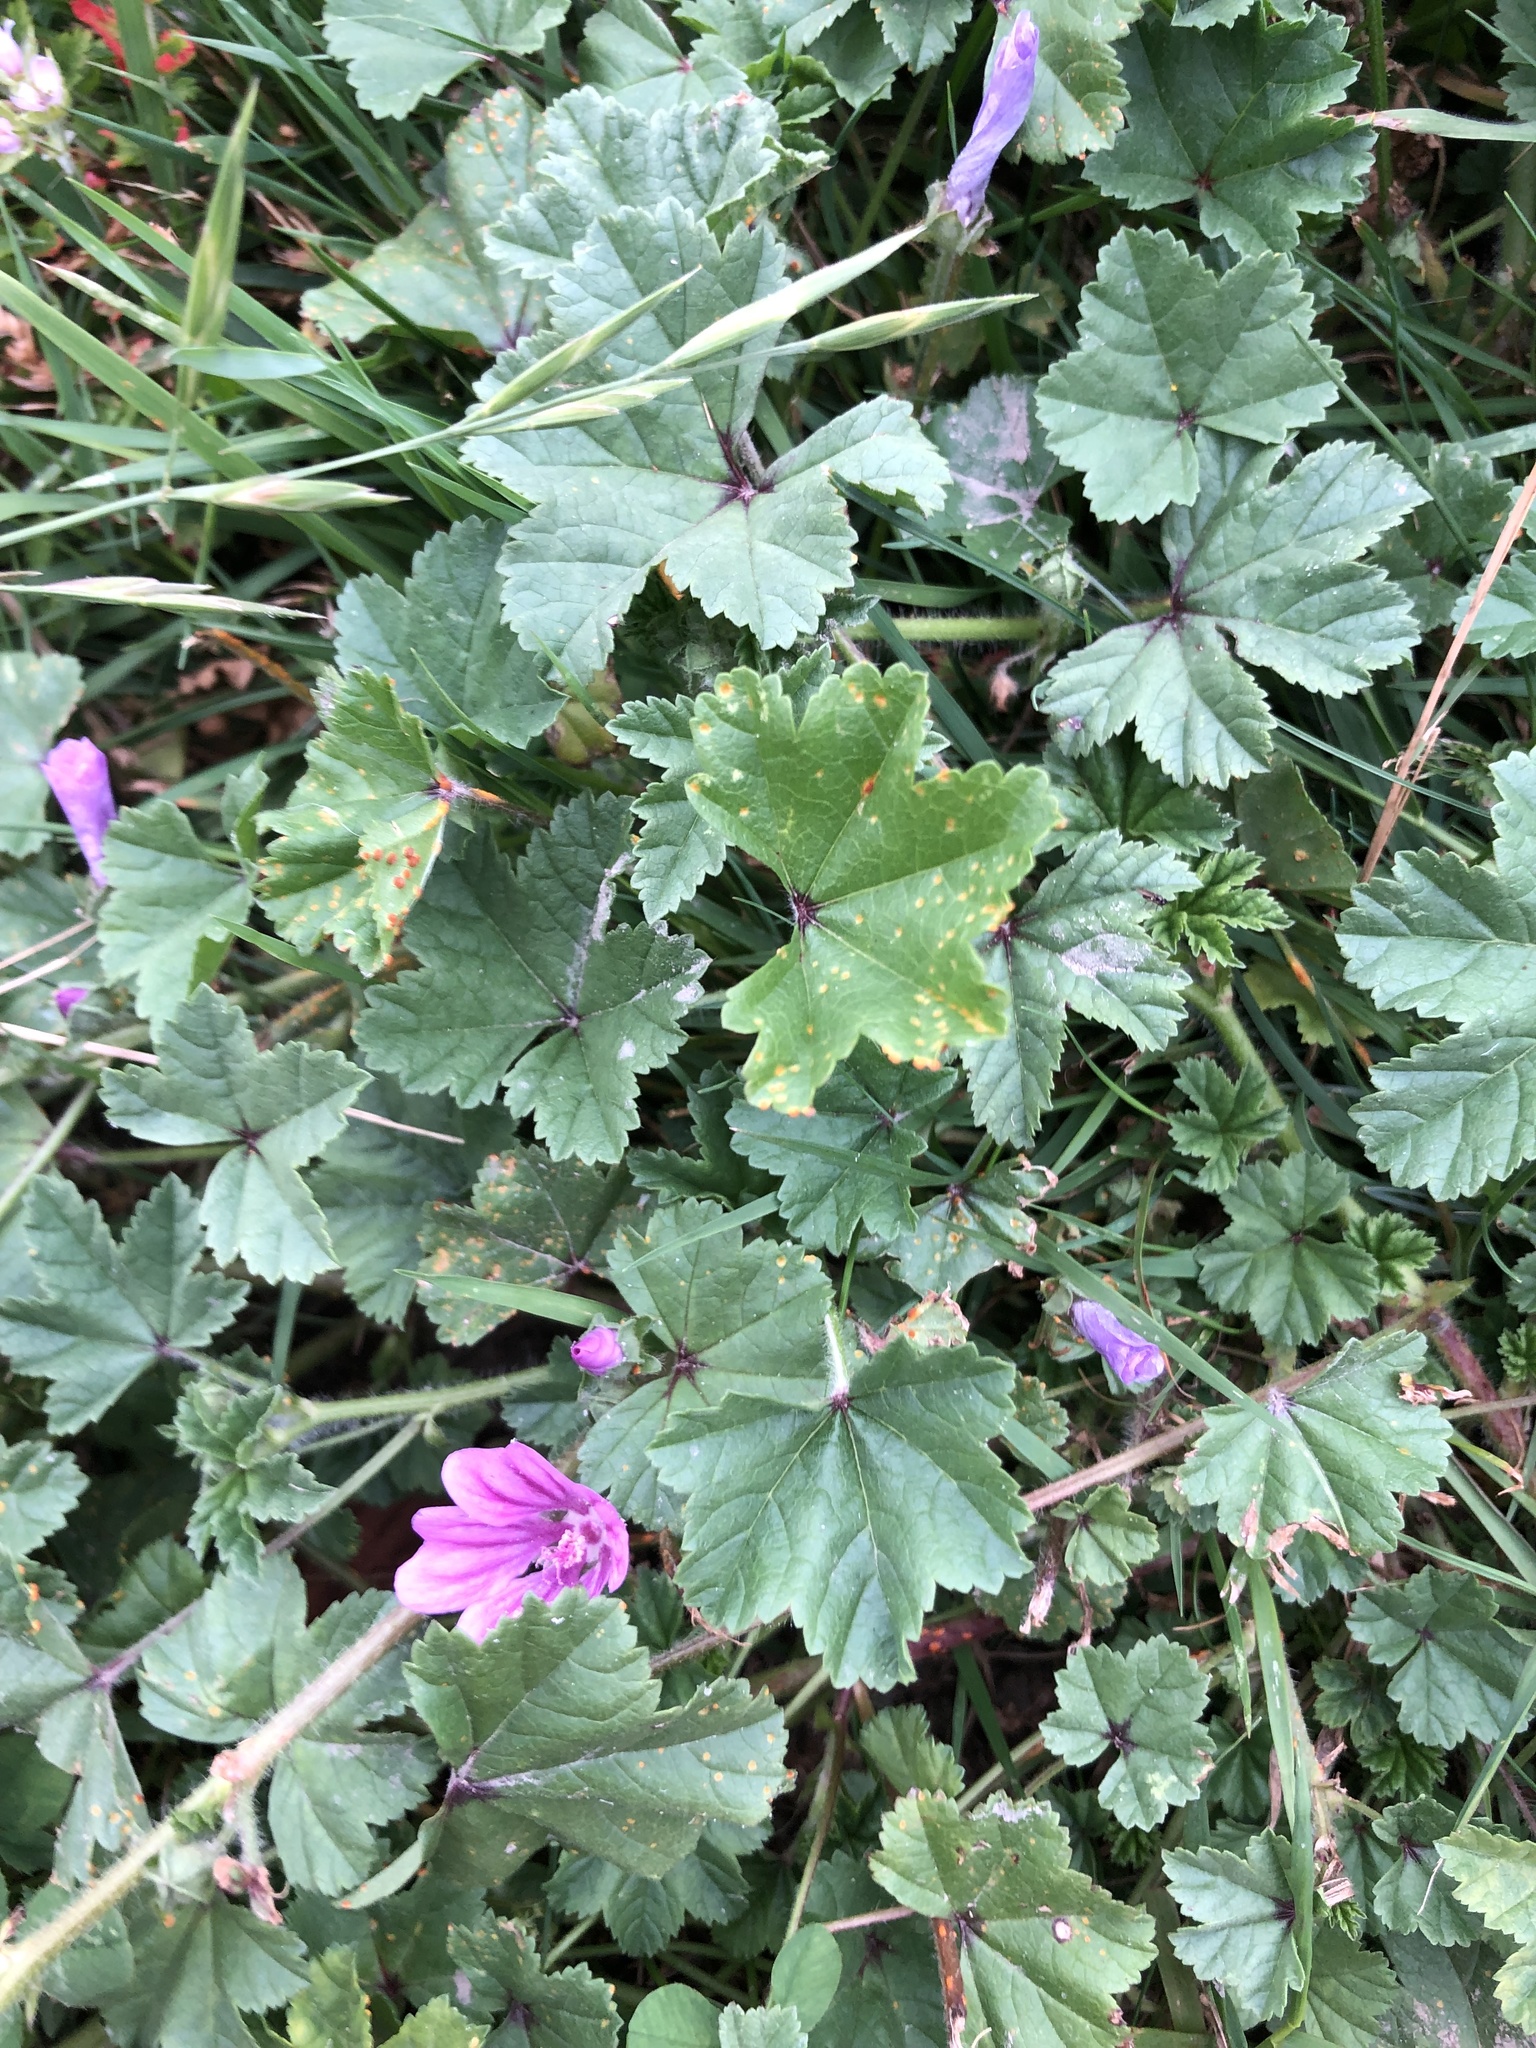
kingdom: Fungi
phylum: Basidiomycota
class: Pucciniomycetes
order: Pucciniales
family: Pucciniaceae
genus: Puccinia
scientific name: Puccinia malvacearum
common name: Hollyhock rust
